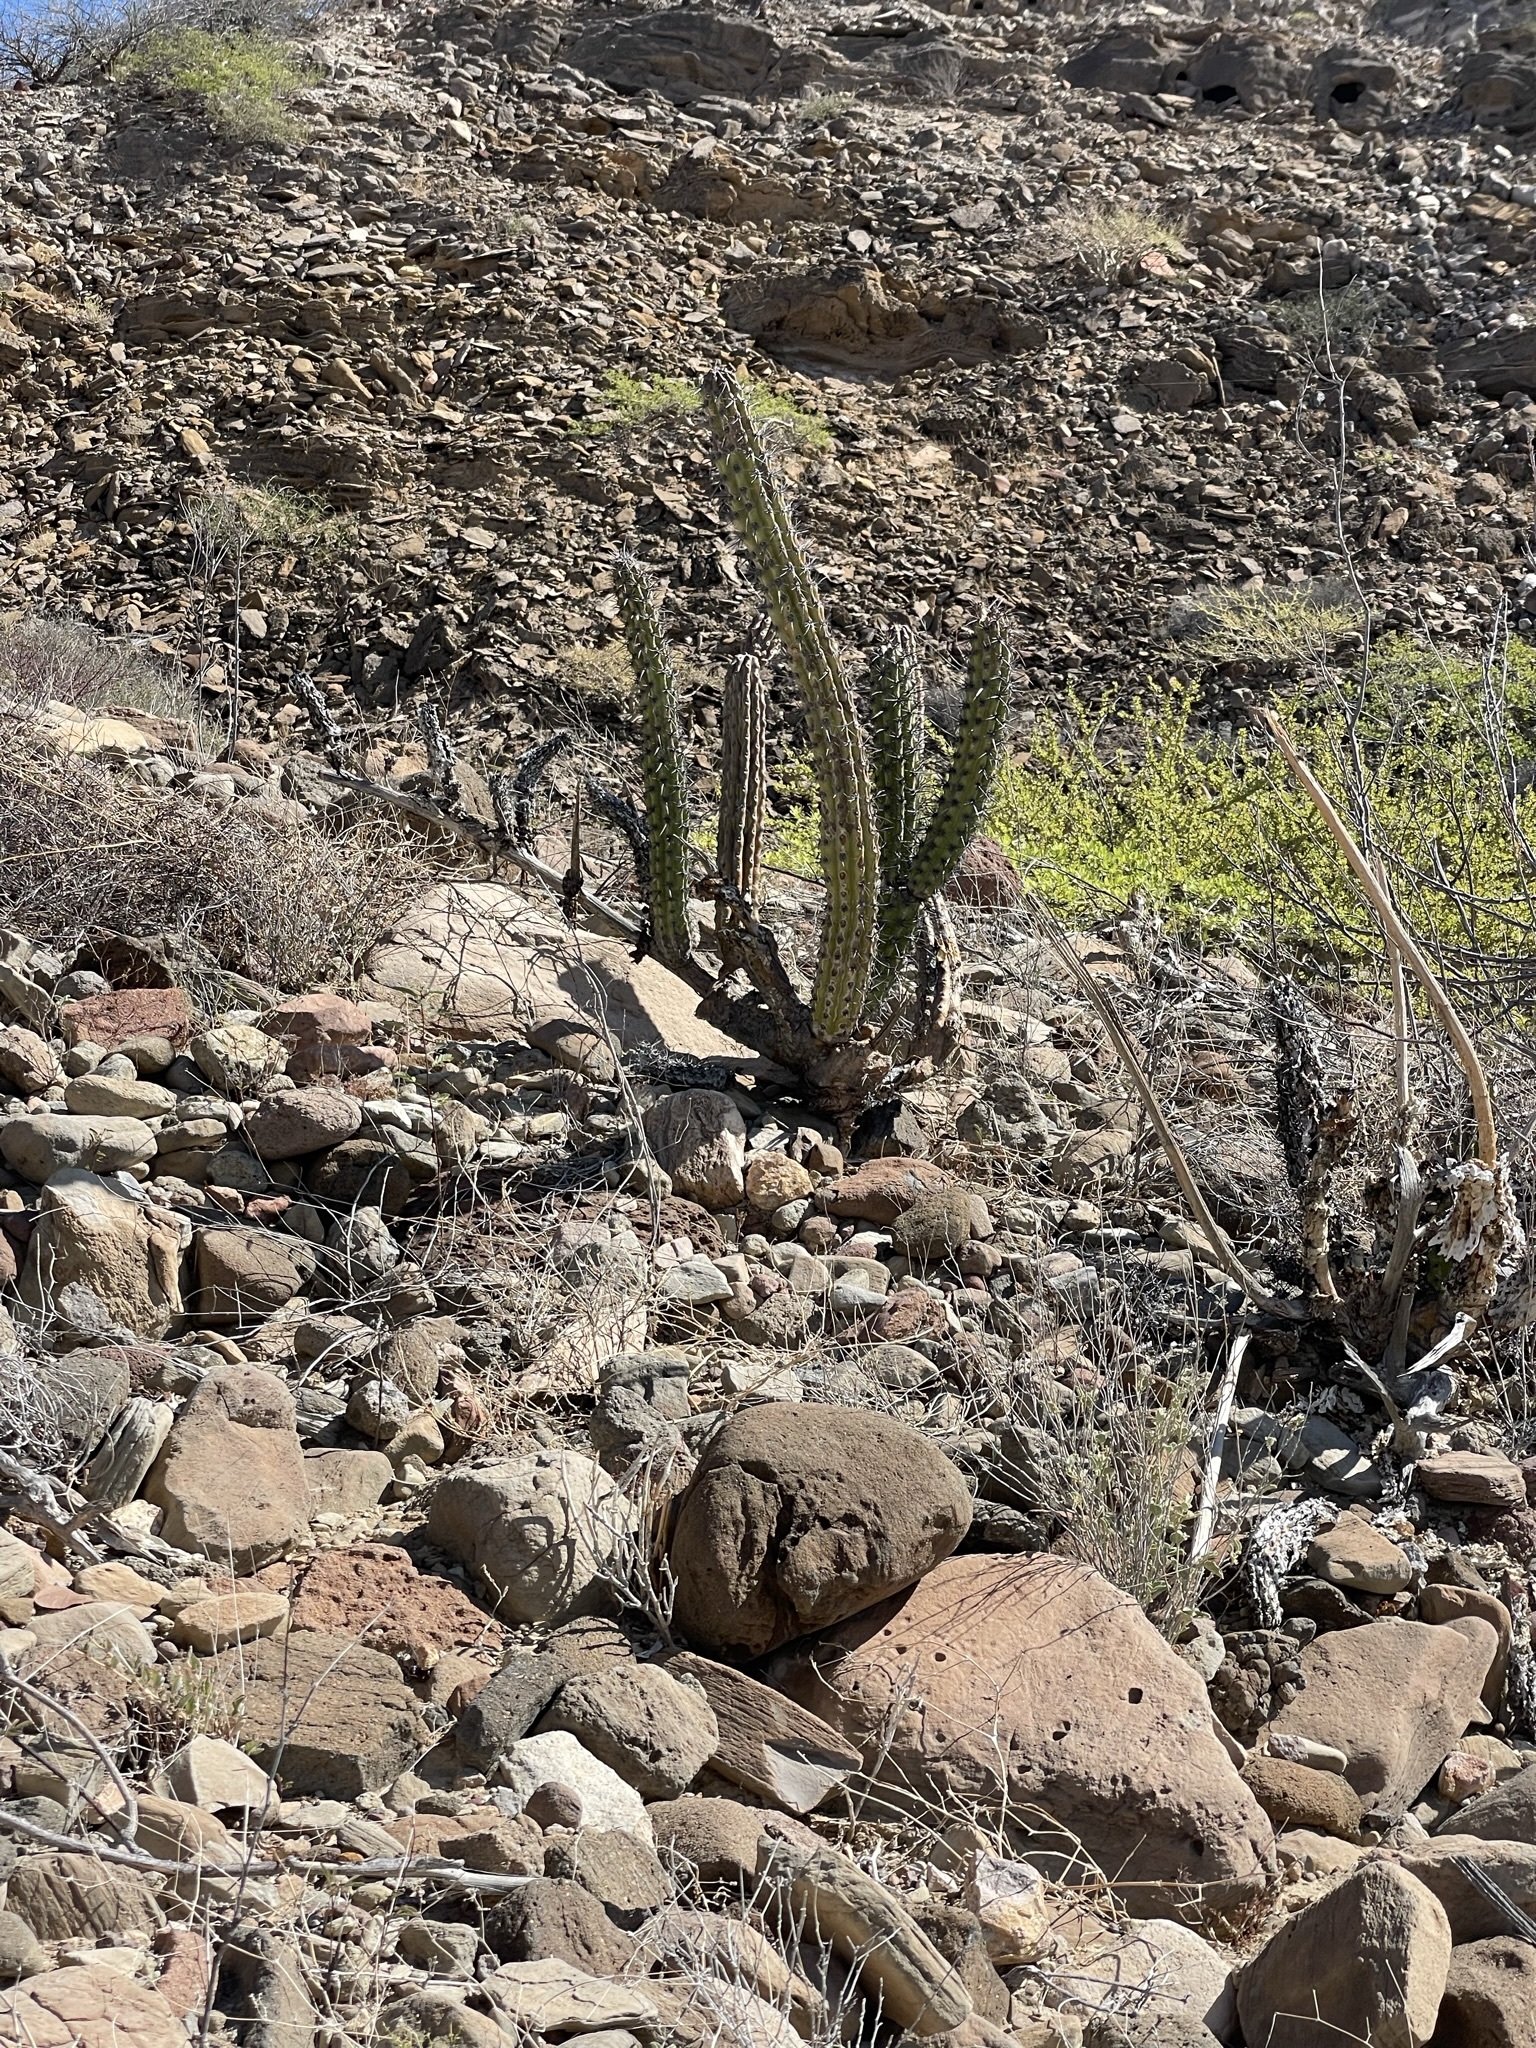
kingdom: Plantae
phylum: Tracheophyta
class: Magnoliopsida
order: Caryophyllales
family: Cactaceae
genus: Stenocereus
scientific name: Stenocereus gummosus
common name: Dagger cactus
